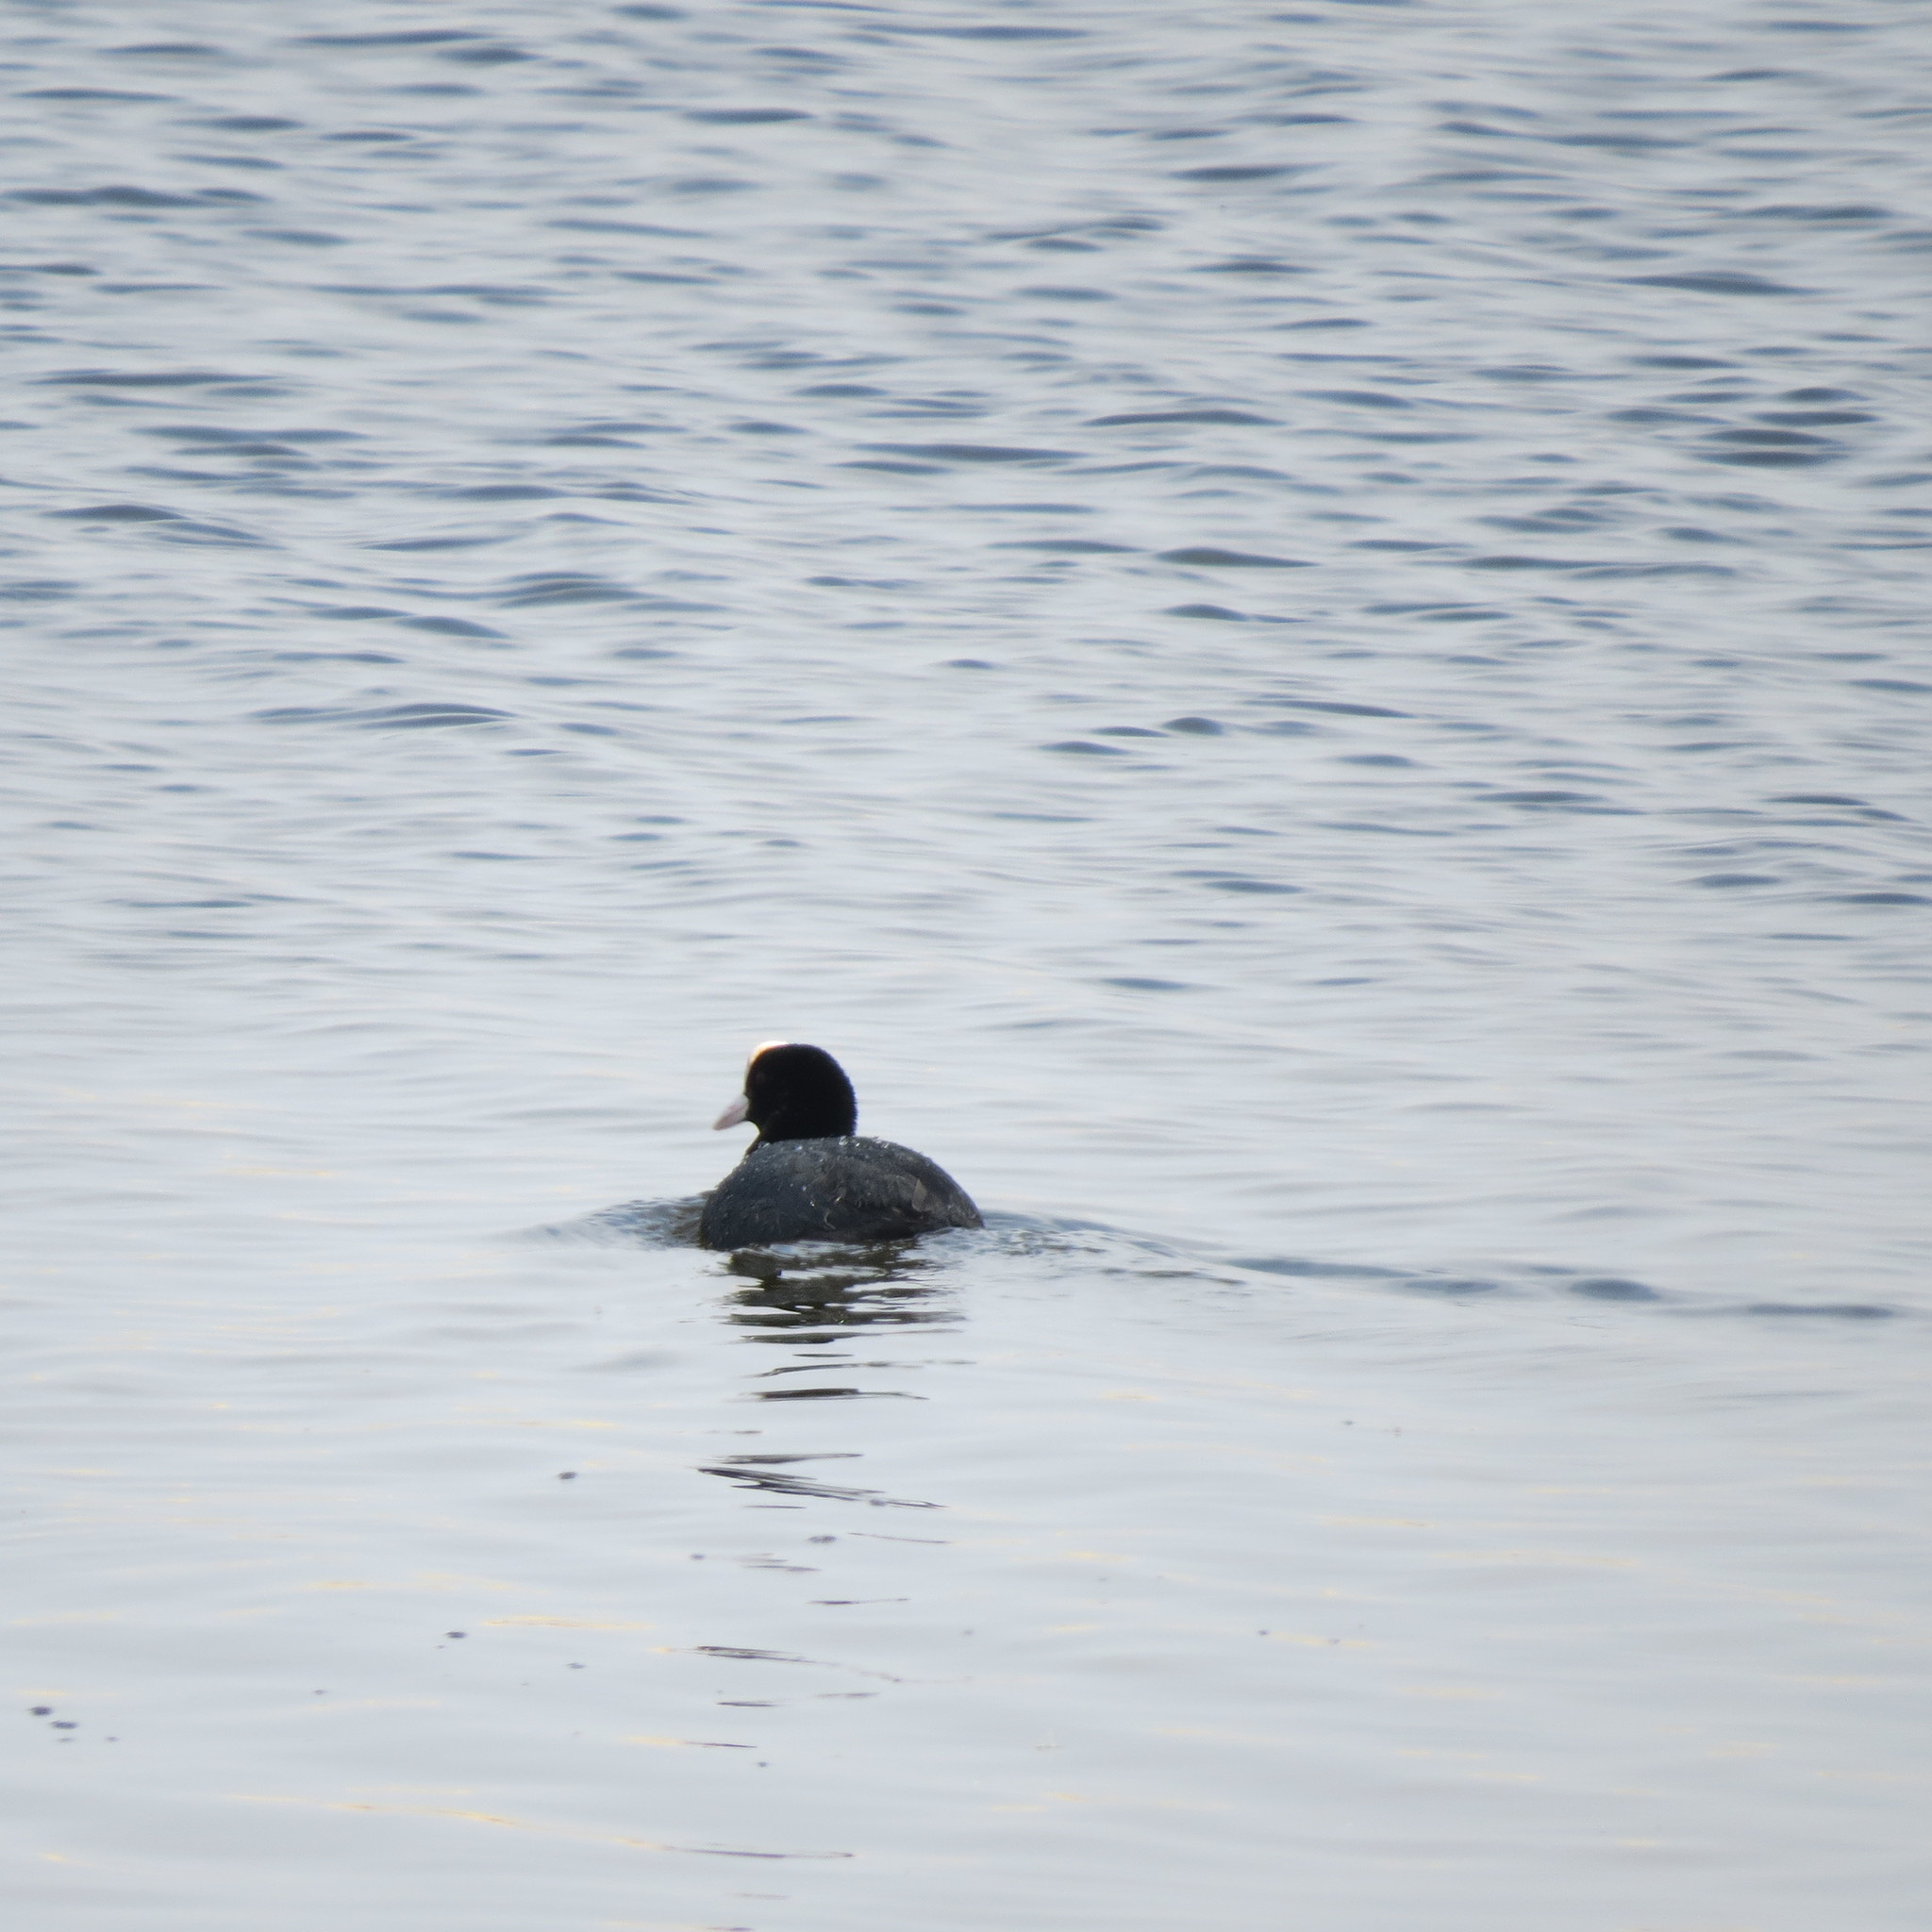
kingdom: Animalia
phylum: Chordata
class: Aves
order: Gruiformes
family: Rallidae
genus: Fulica
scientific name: Fulica atra
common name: Eurasian coot
